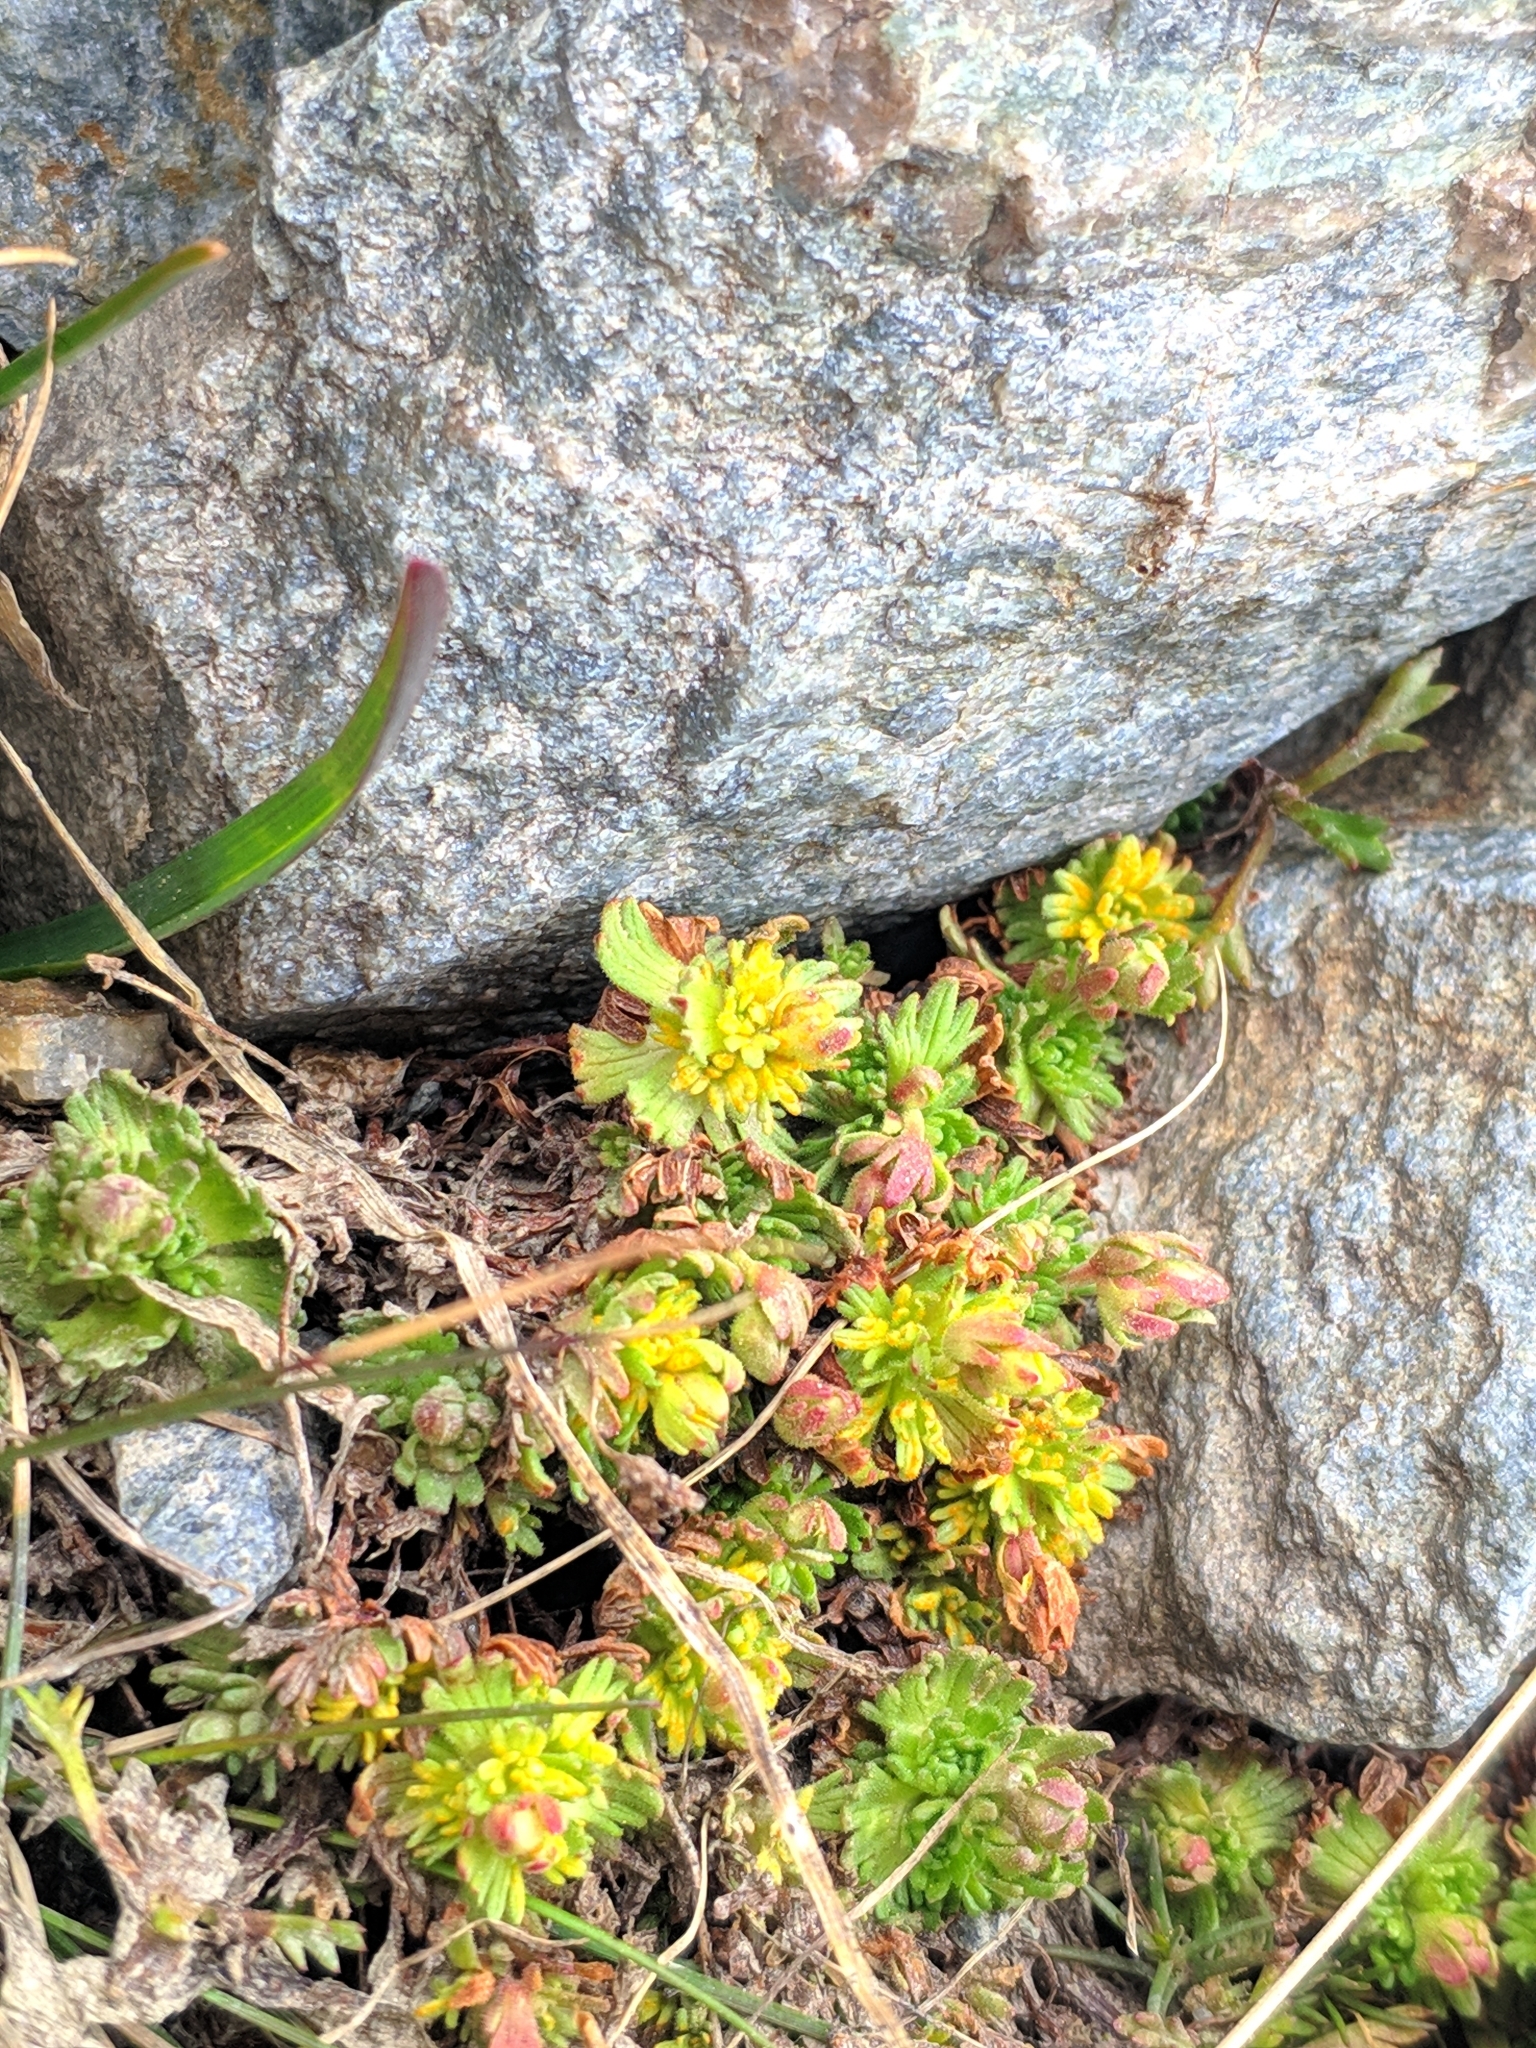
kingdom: Plantae
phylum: Tracheophyta
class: Magnoliopsida
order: Saxifragales
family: Saxifragaceae
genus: Saxifraga
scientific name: Saxifraga exarata
